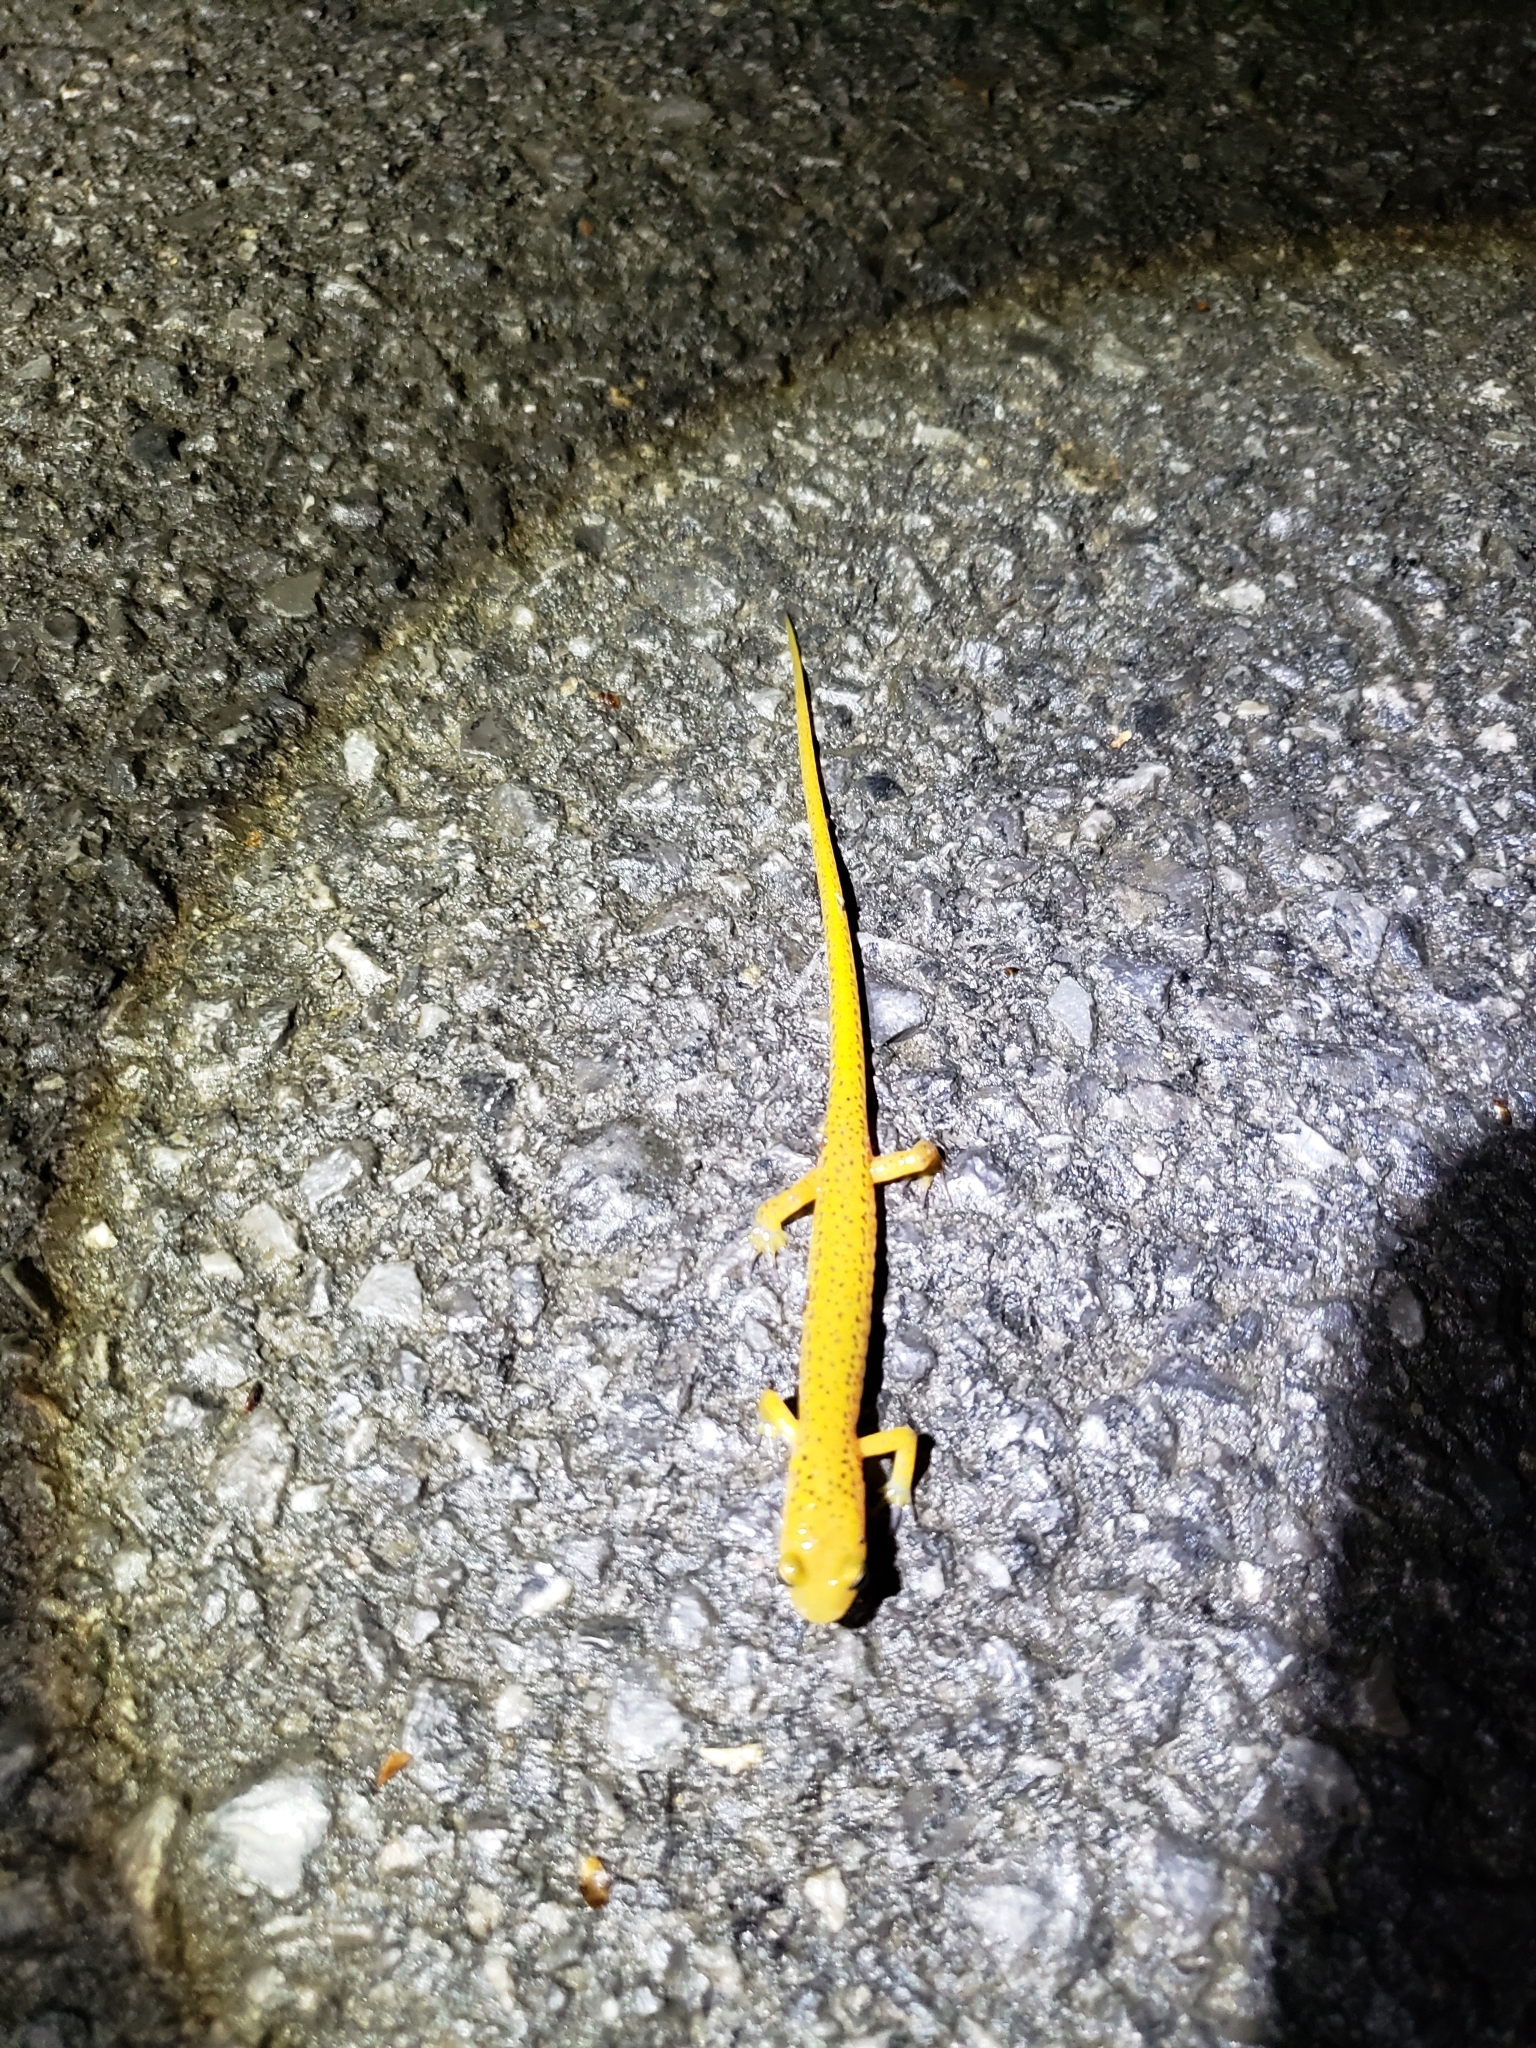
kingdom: Animalia
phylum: Chordata
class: Amphibia
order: Caudata
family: Plethodontidae
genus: Eurycea
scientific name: Eurycea longicauda
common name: Long-tailed salamander
